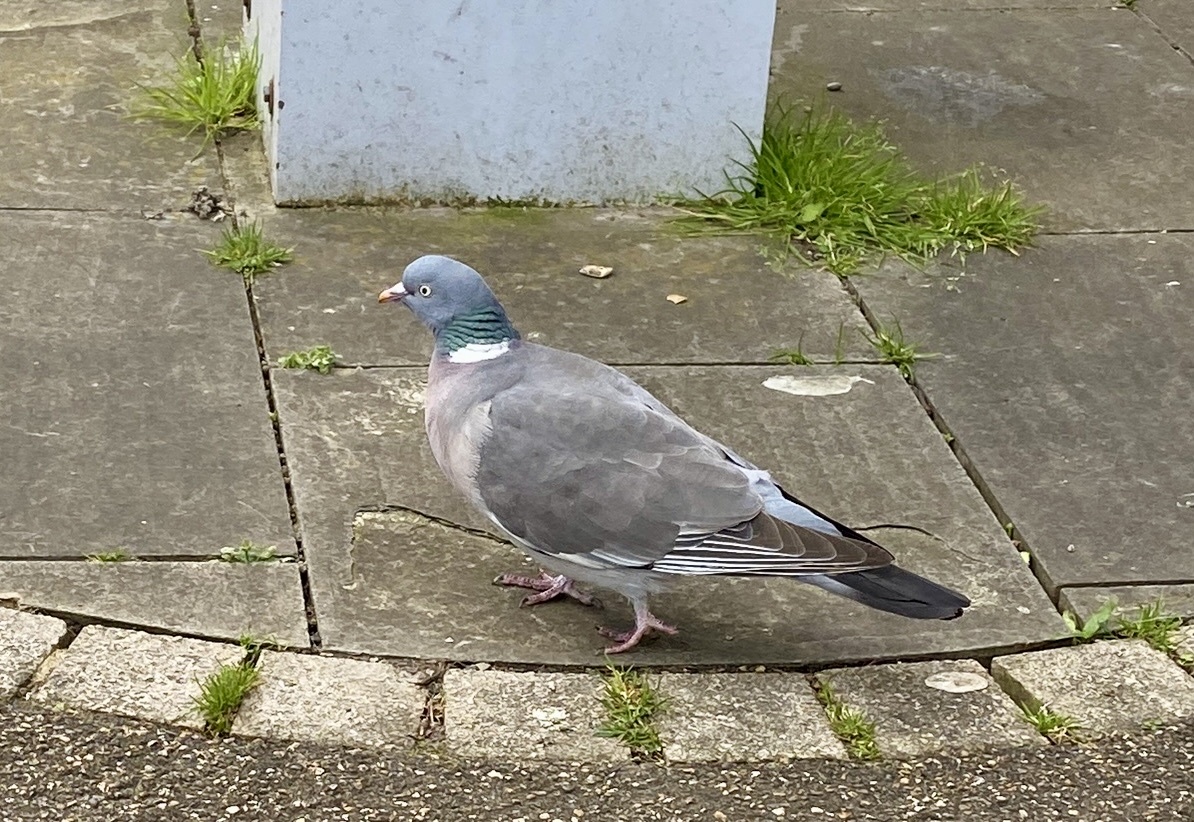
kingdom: Animalia
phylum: Chordata
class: Aves
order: Columbiformes
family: Columbidae
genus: Columba
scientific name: Columba palumbus
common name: Common wood pigeon
